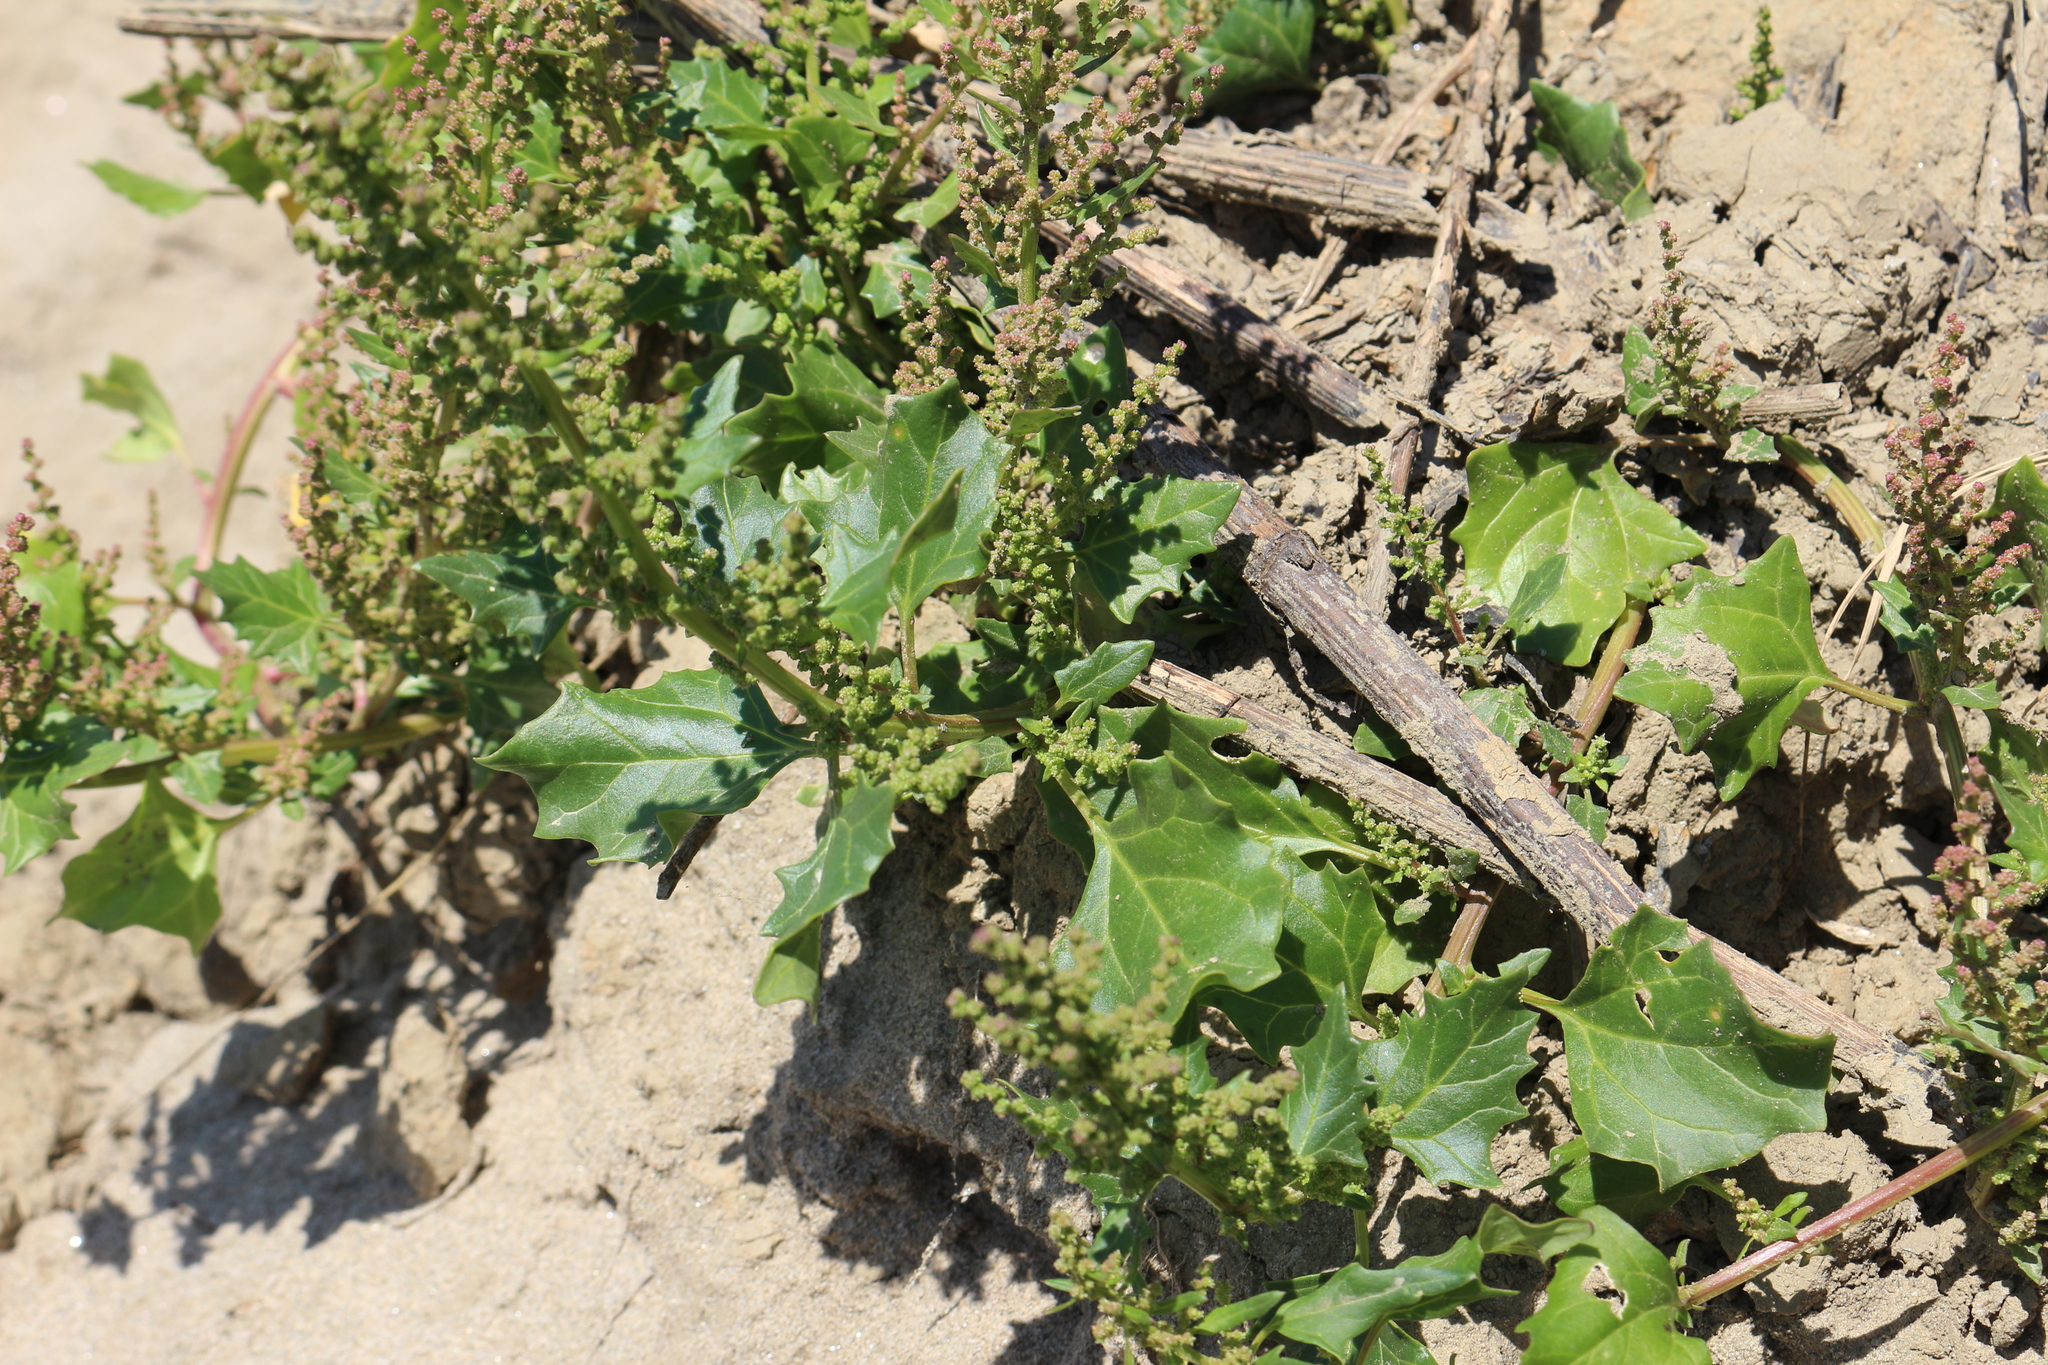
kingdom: Plantae
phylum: Tracheophyta
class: Magnoliopsida
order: Caryophyllales
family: Amaranthaceae
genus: Oxybasis
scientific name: Oxybasis rubra
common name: Red goosefoot
